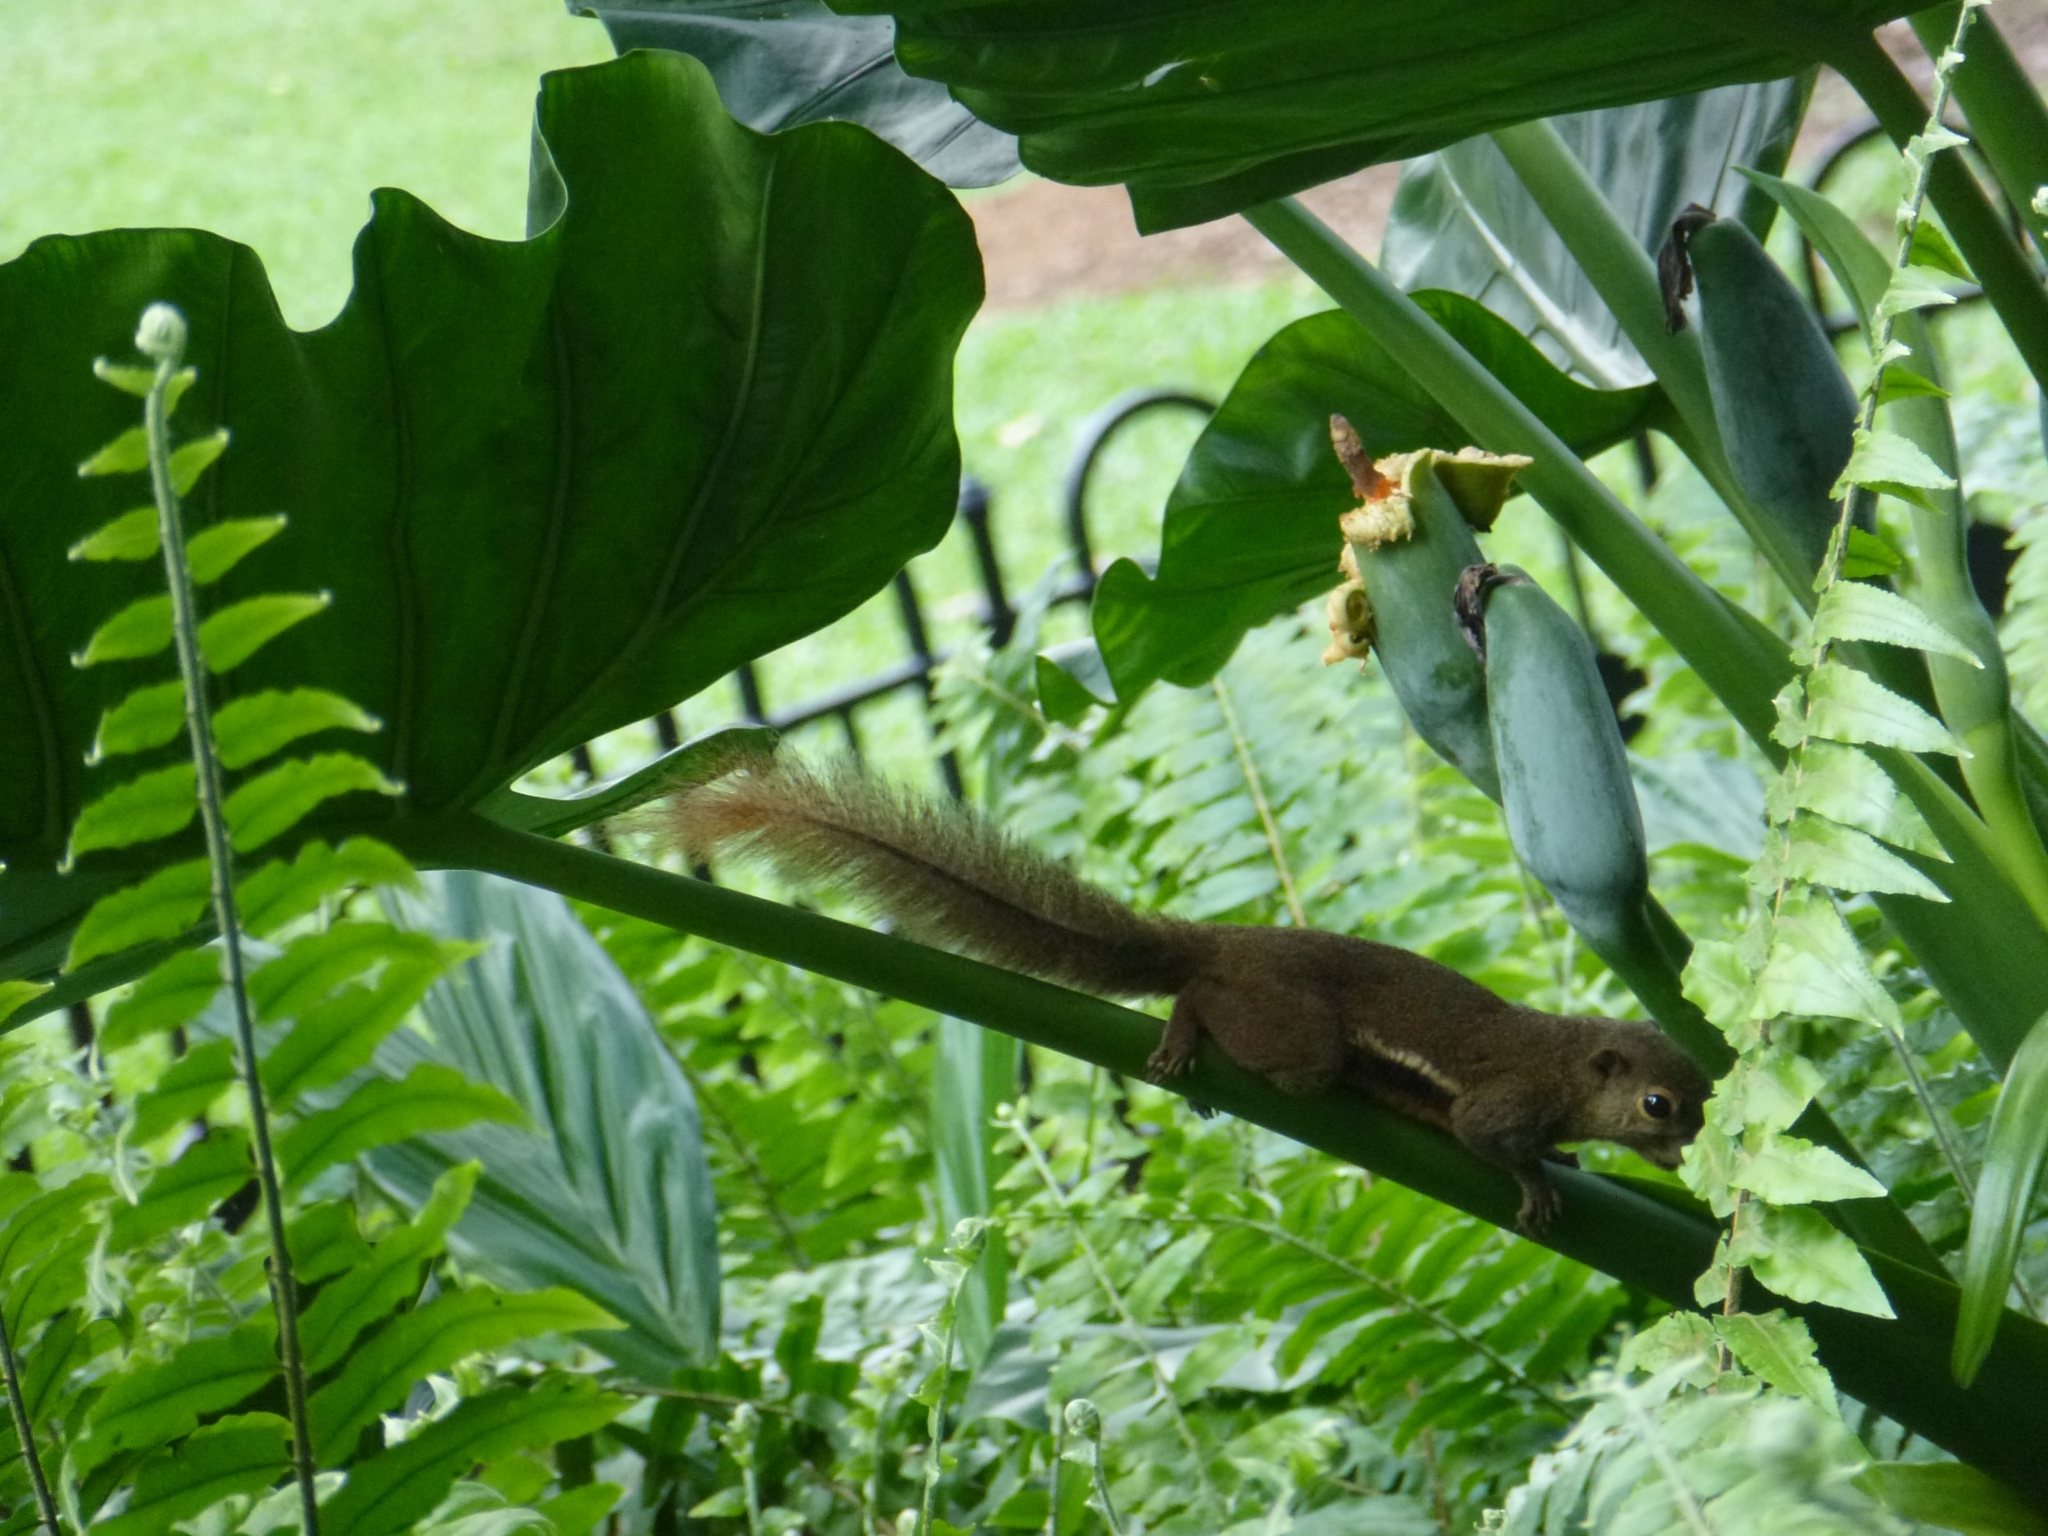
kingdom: Animalia
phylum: Chordata
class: Mammalia
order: Rodentia
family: Sciuridae
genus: Callosciurus
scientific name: Callosciurus notatus
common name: Plantain squirrel
